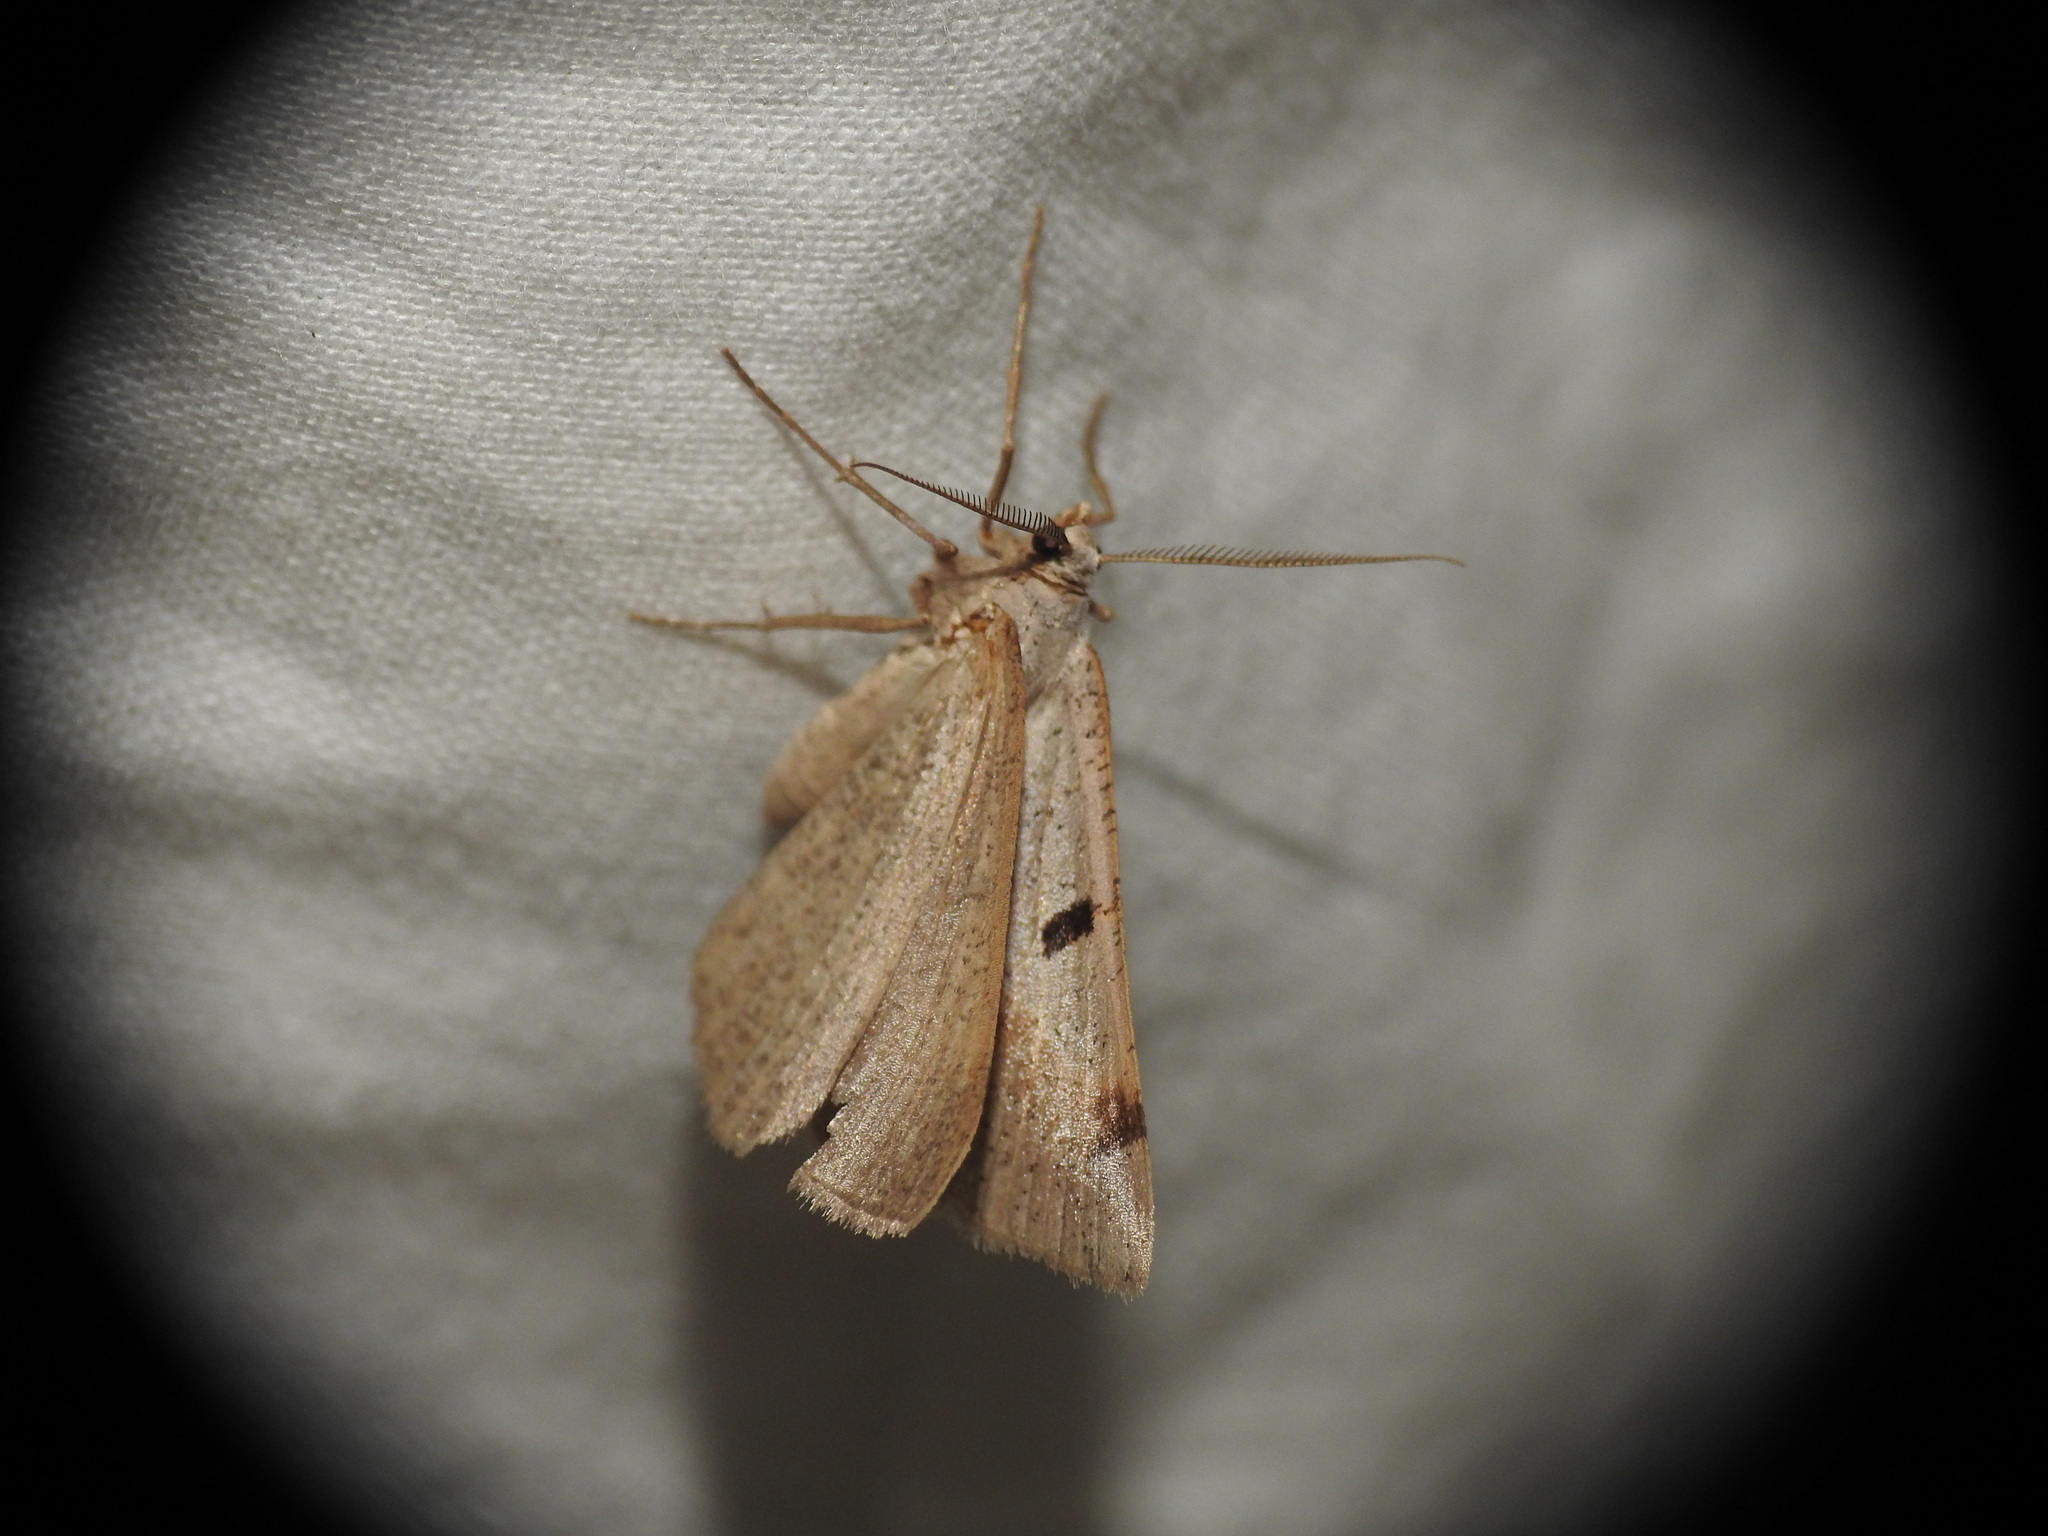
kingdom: Animalia
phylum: Arthropoda
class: Insecta
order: Lepidoptera
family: Geometridae
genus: Itame
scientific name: Itame vincularia
